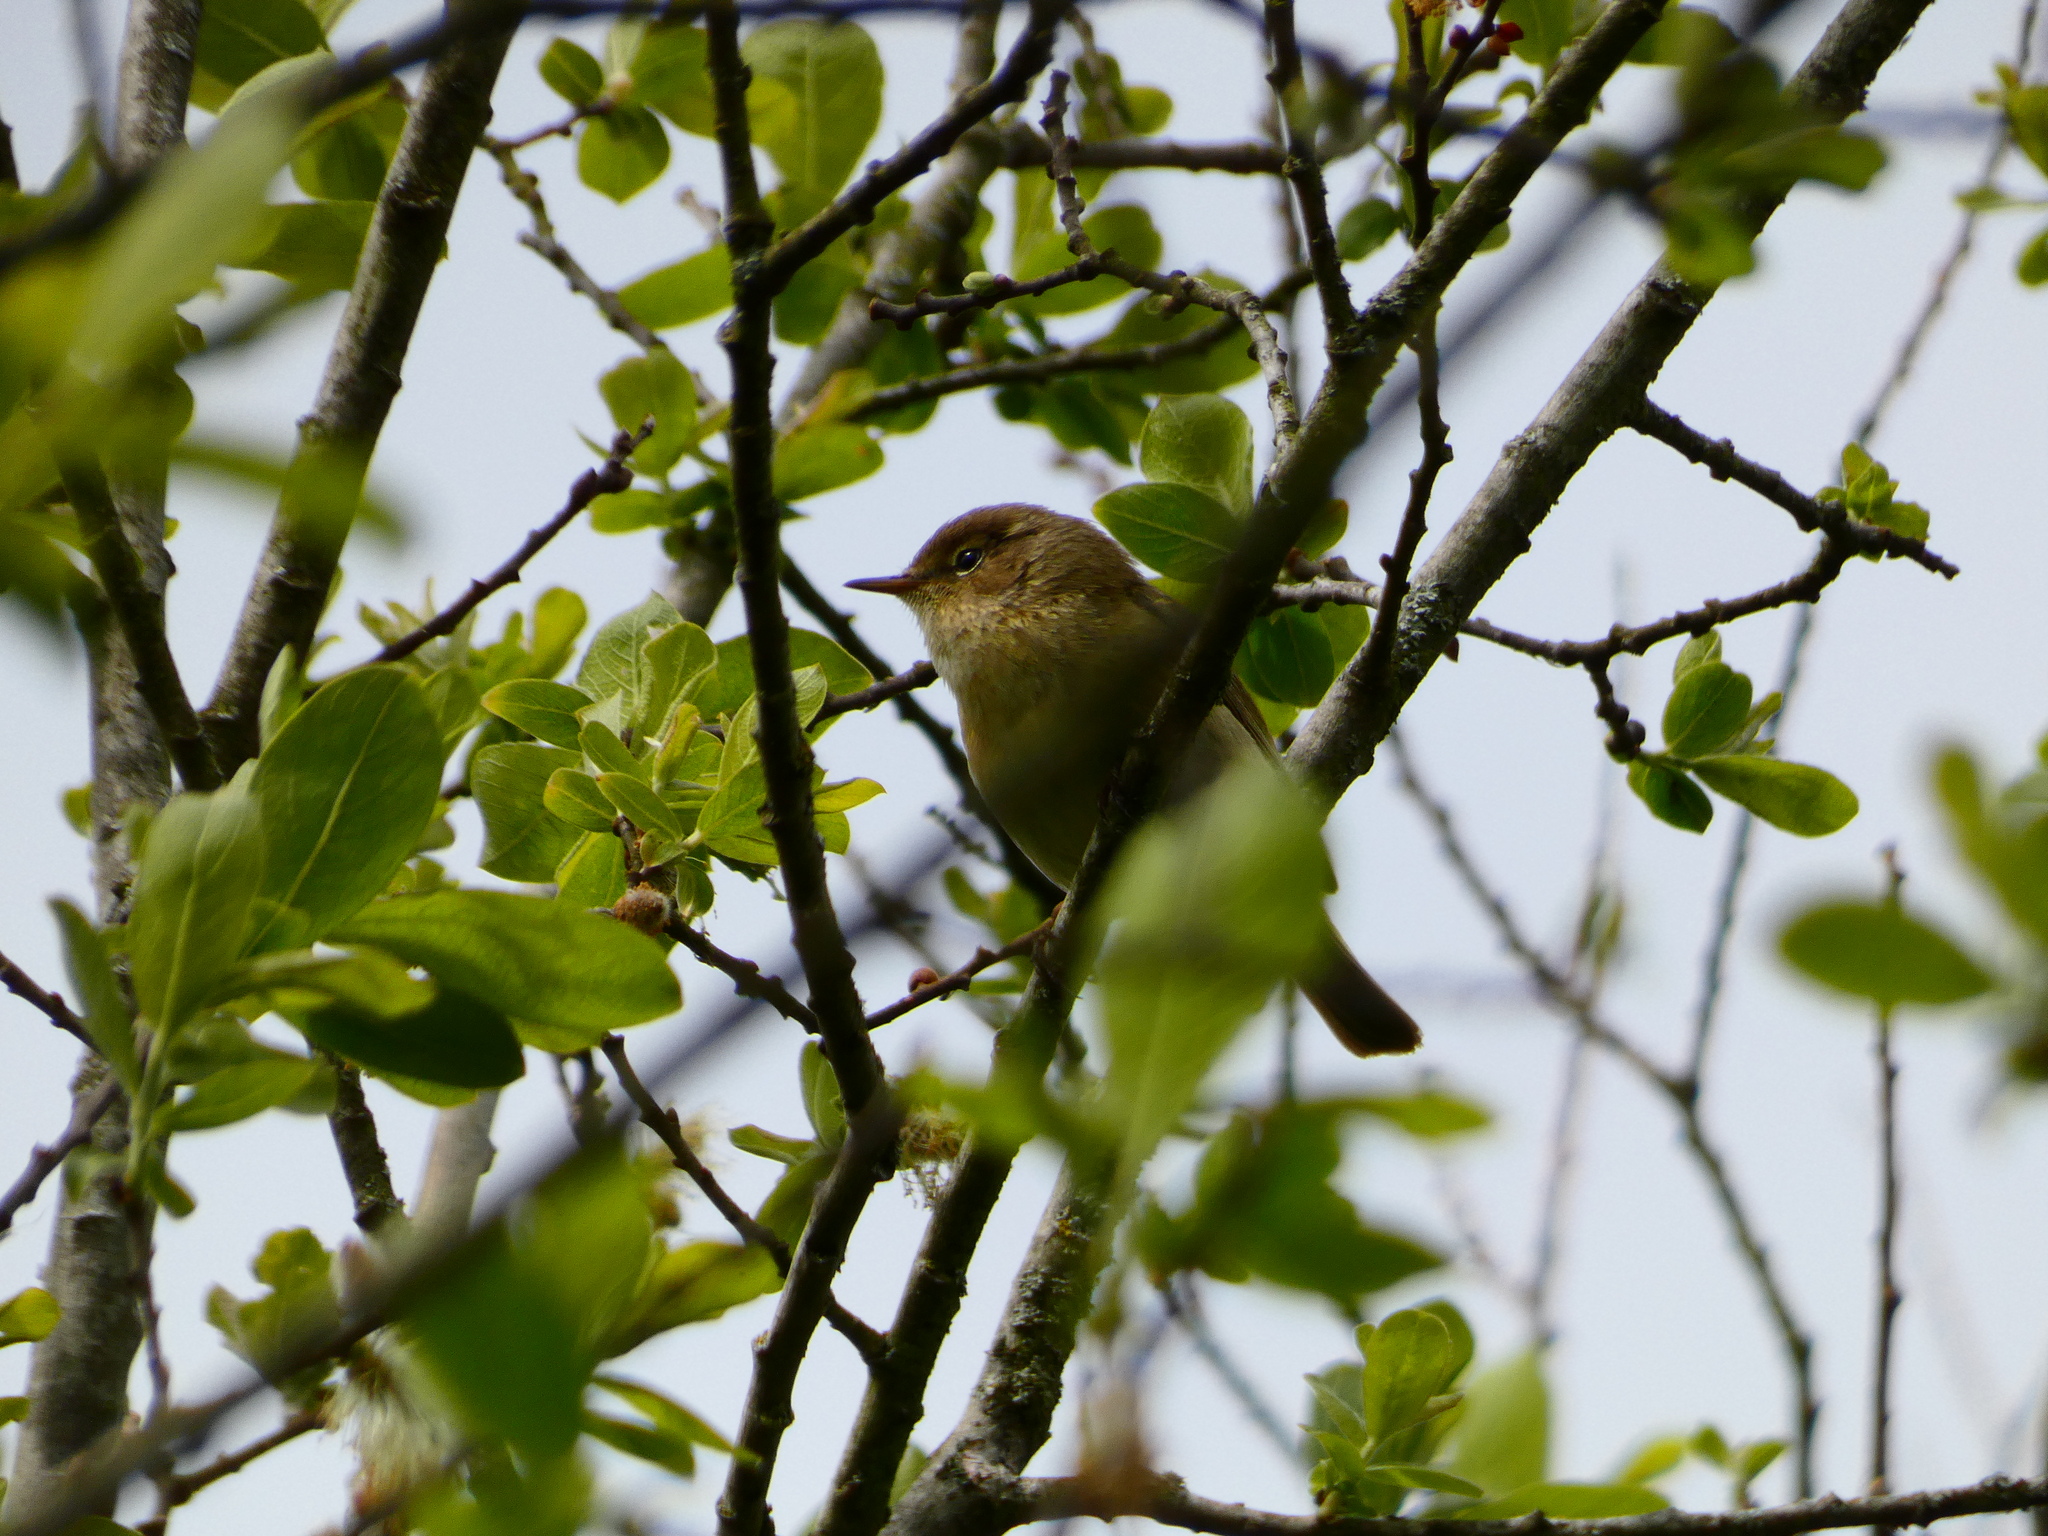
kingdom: Animalia
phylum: Chordata
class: Aves
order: Passeriformes
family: Phylloscopidae
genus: Phylloscopus
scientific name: Phylloscopus collybita
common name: Common chiffchaff
